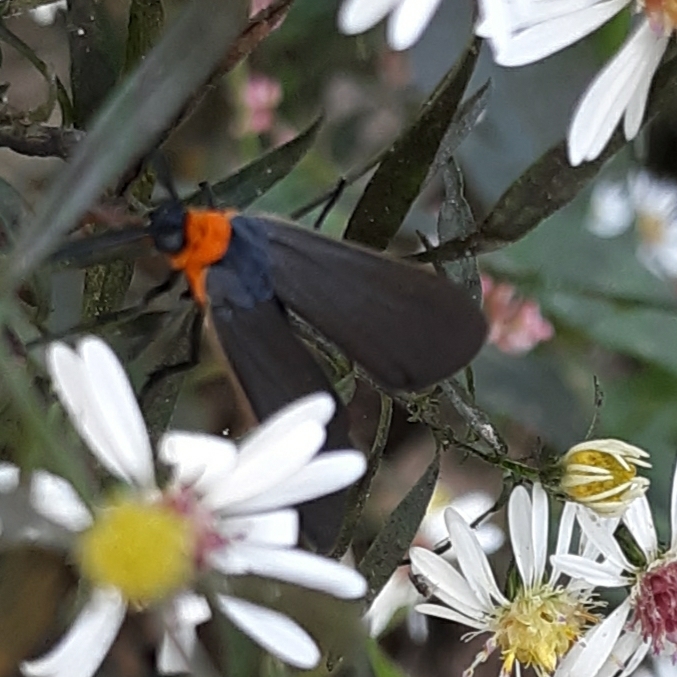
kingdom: Animalia
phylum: Arthropoda
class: Insecta
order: Lepidoptera
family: Erebidae
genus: Cisseps
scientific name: Cisseps fulvicollis
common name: Yellow-collared scape moth
